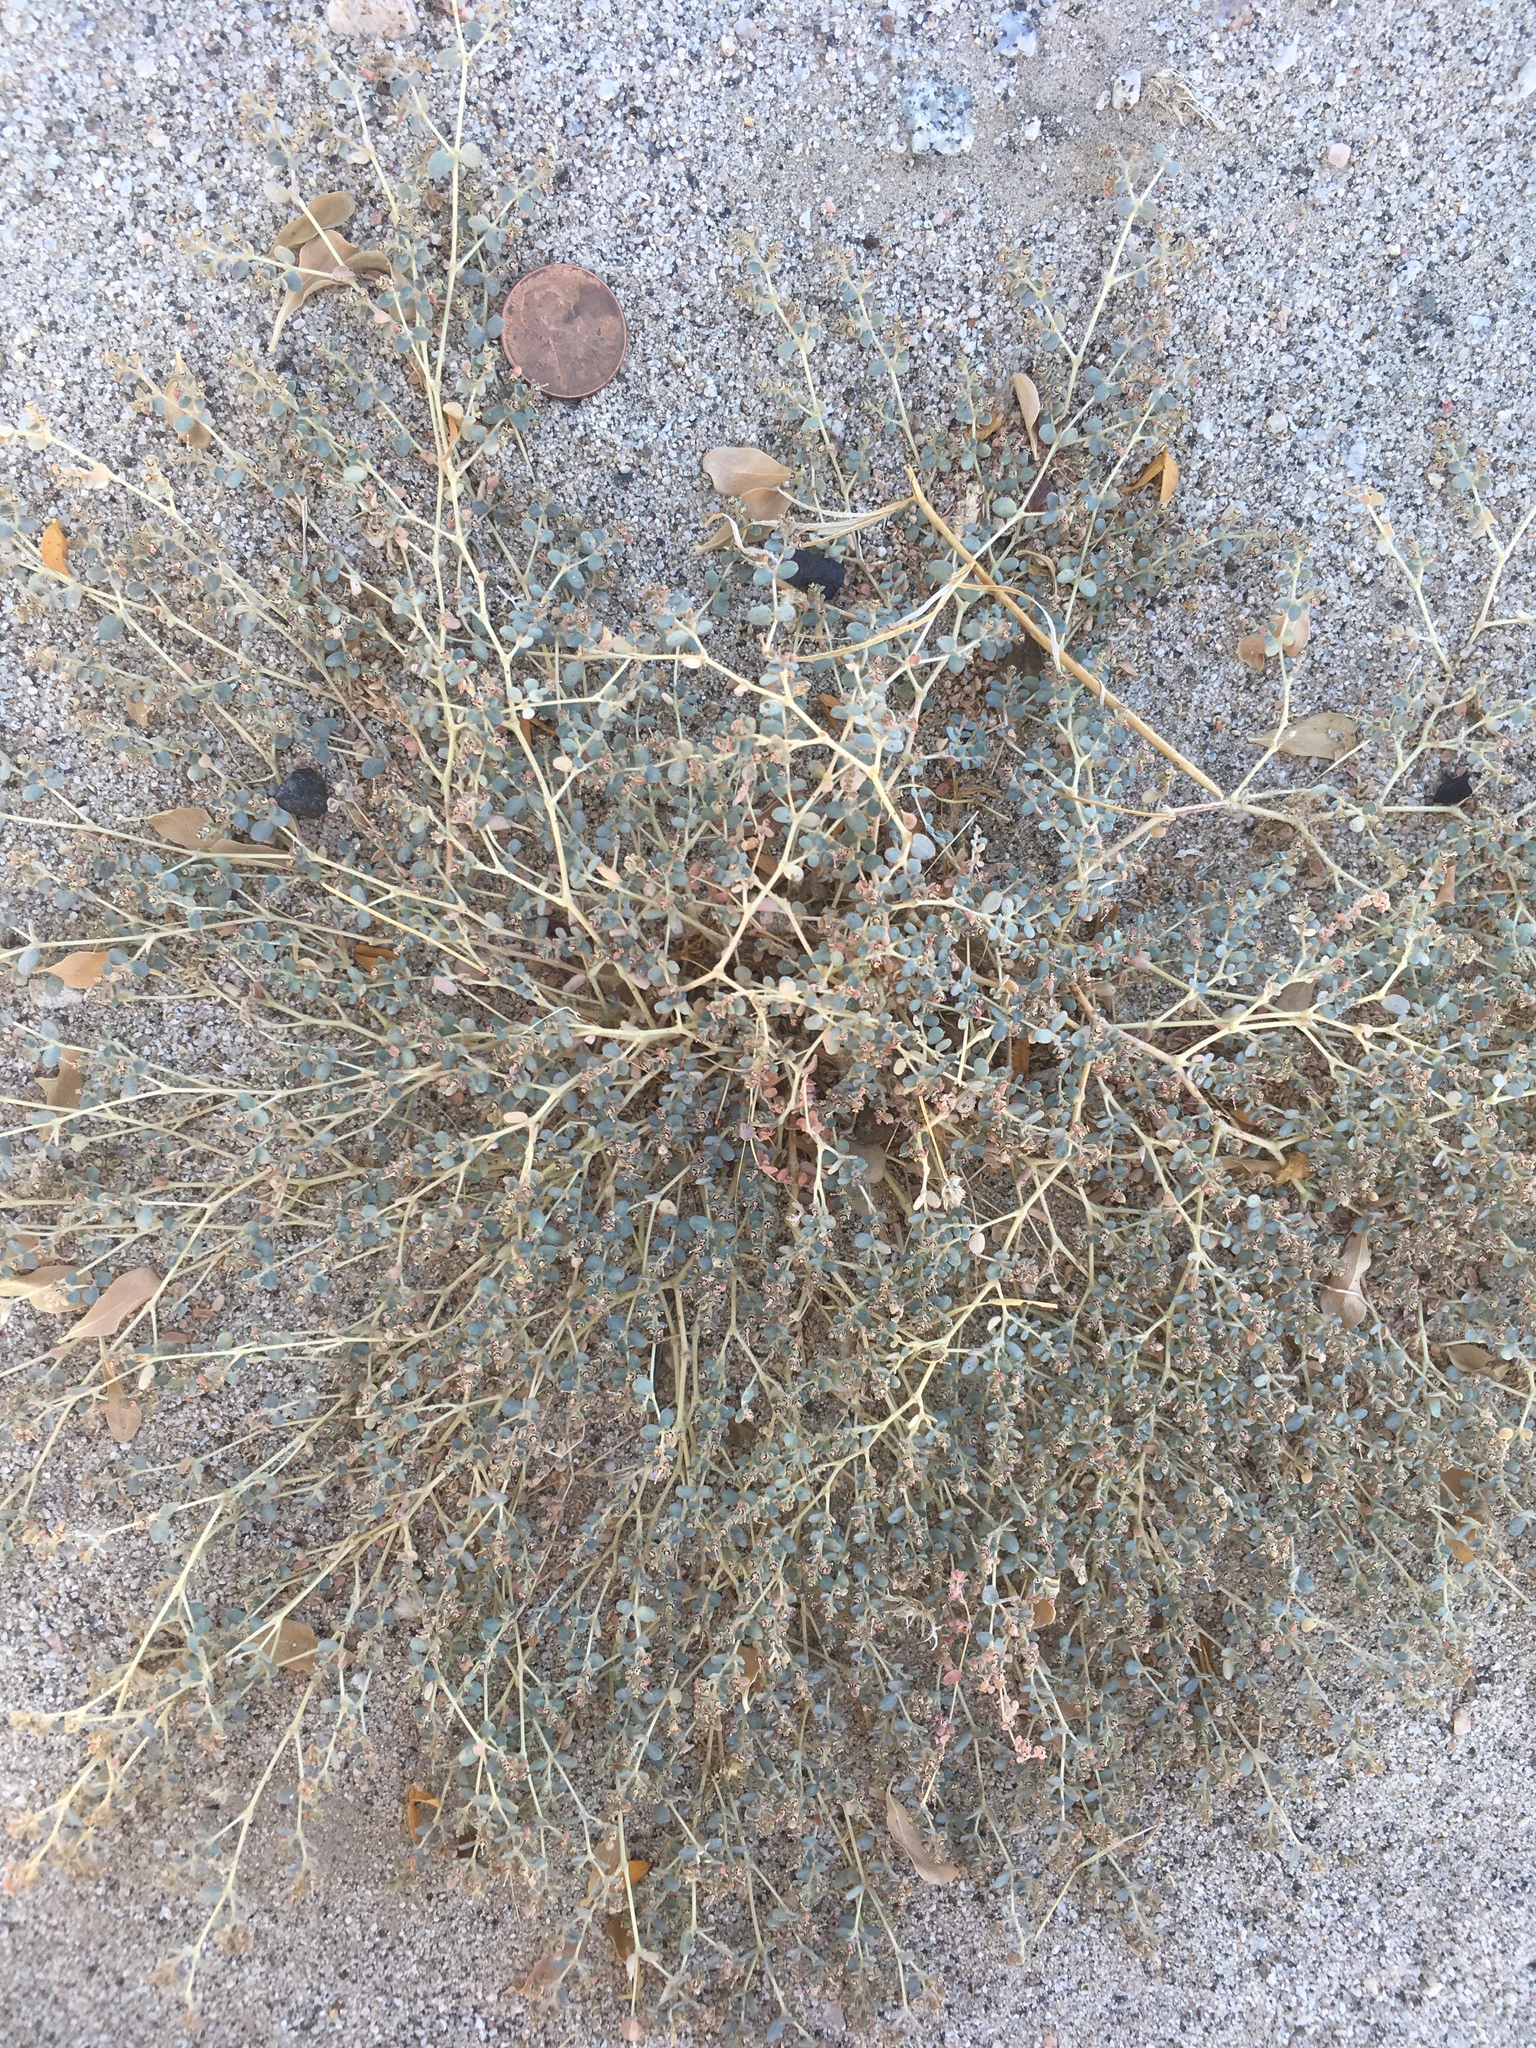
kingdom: Plantae
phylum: Tracheophyta
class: Magnoliopsida
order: Malpighiales
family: Euphorbiaceae
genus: Euphorbia
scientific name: Euphorbia polycarpa
